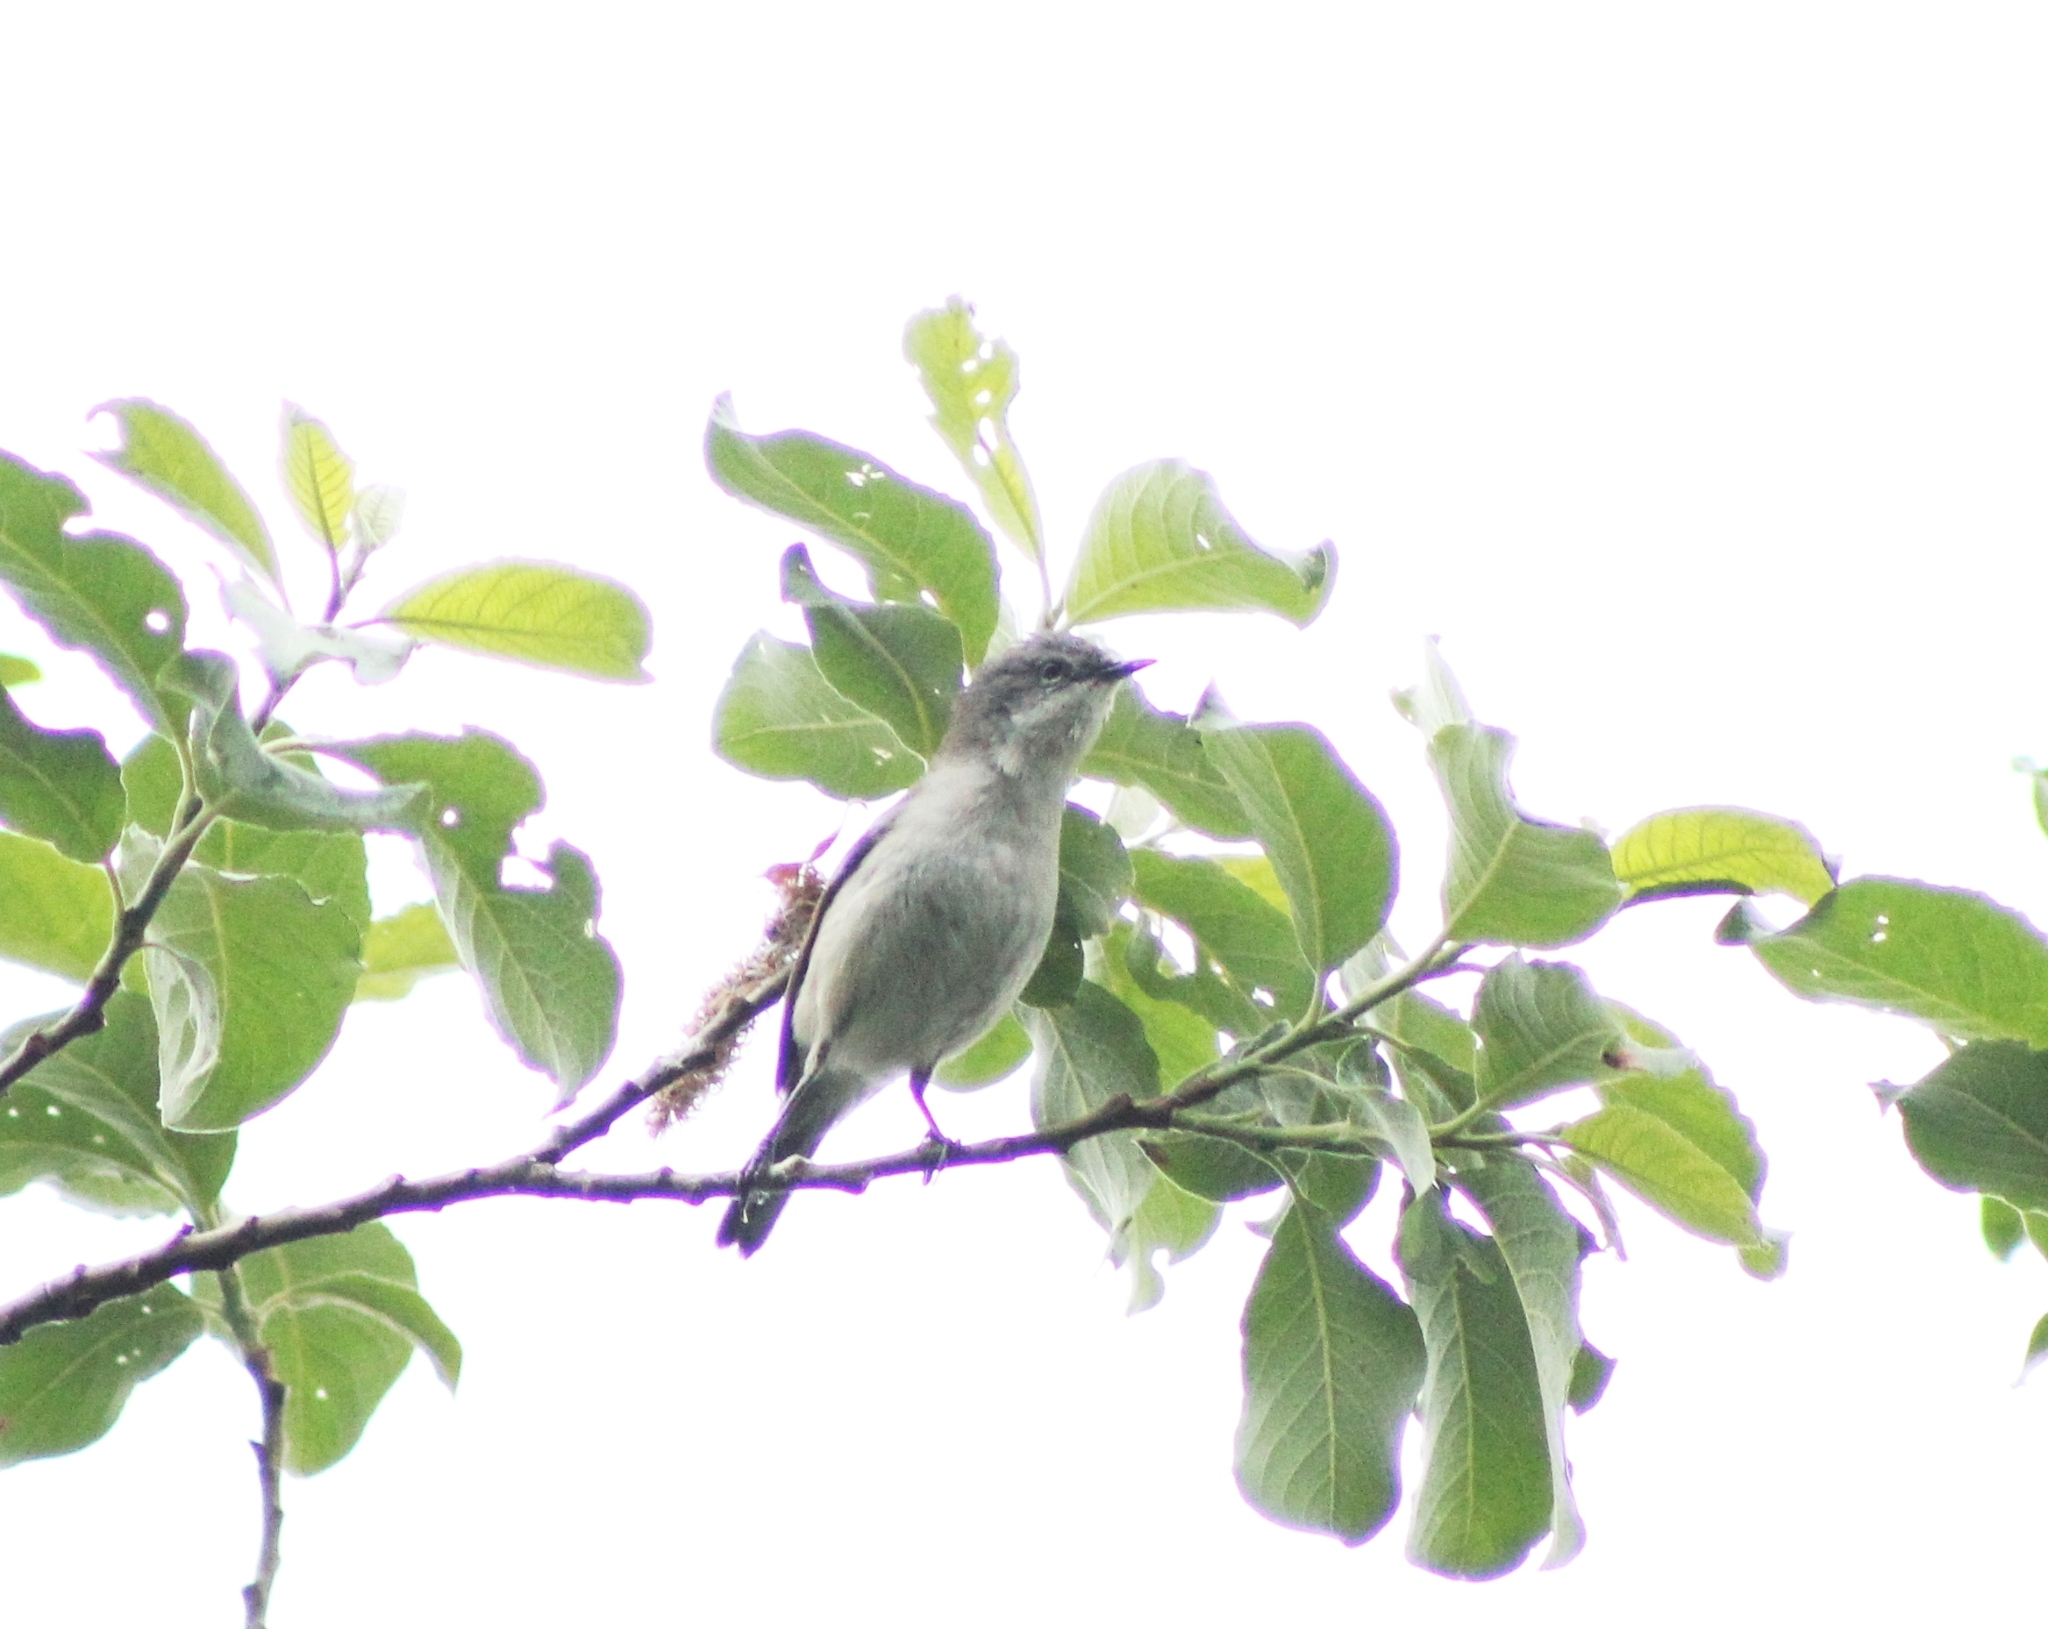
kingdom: Animalia
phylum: Chordata
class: Aves
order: Passeriformes
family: Sylviidae
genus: Sylvia
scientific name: Sylvia curruca
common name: Lesser whitethroat
